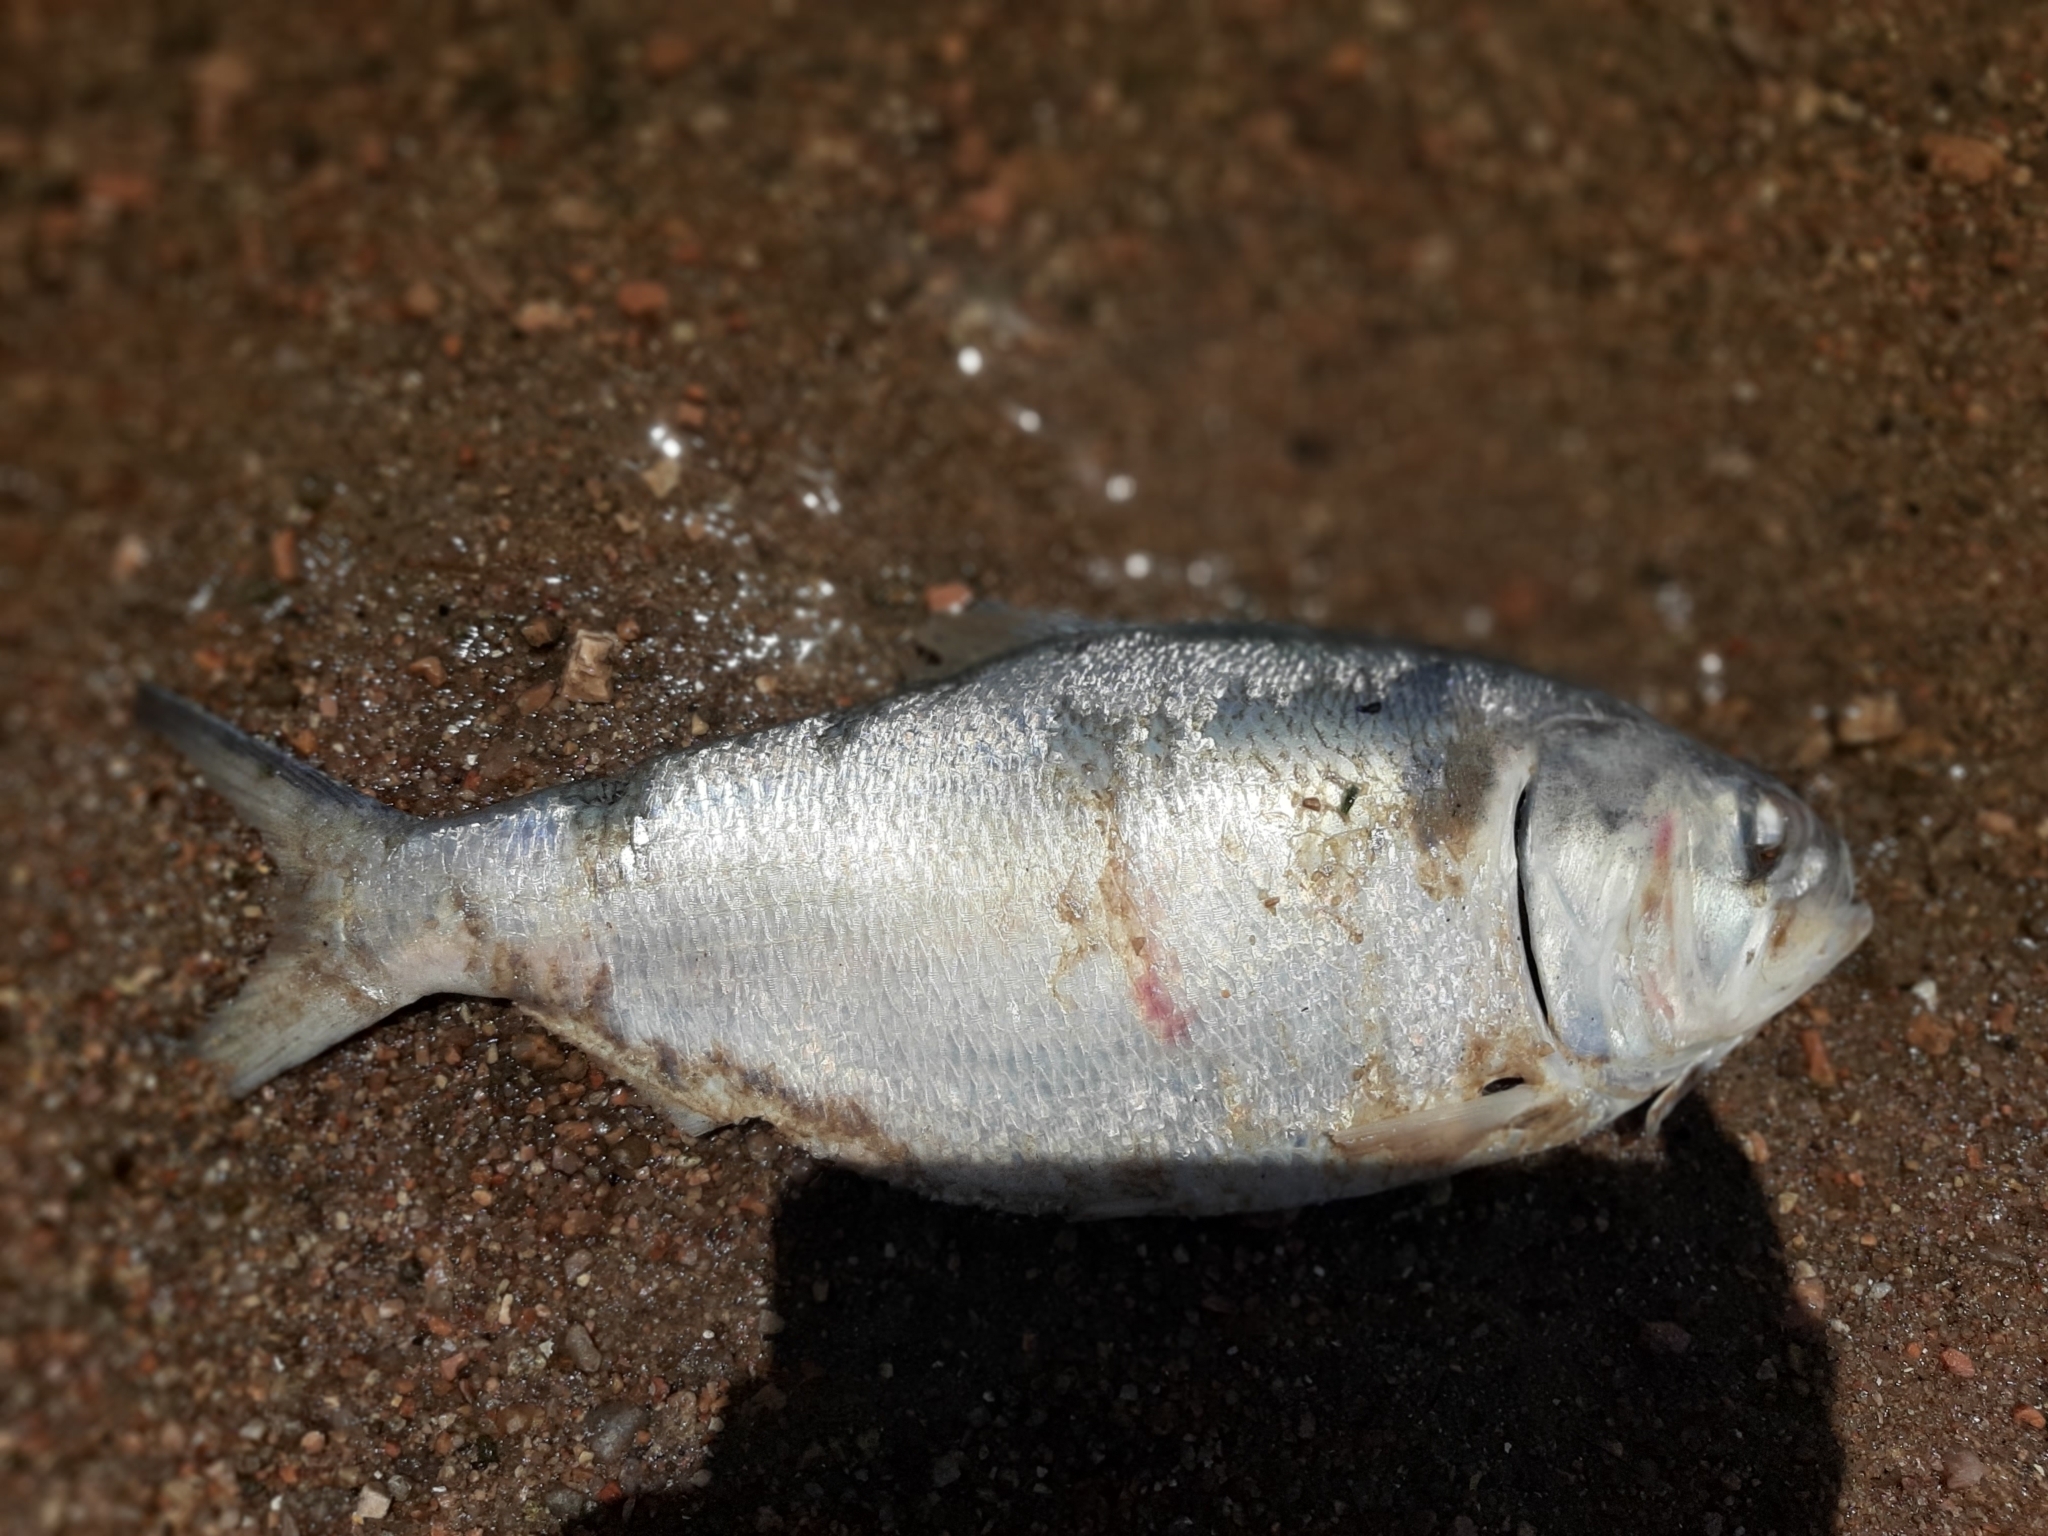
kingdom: Animalia
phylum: Chordata
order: Clupeiformes
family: Clupeidae
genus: Brevoortia
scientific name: Brevoortia aurea
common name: Brazilian menhaden
